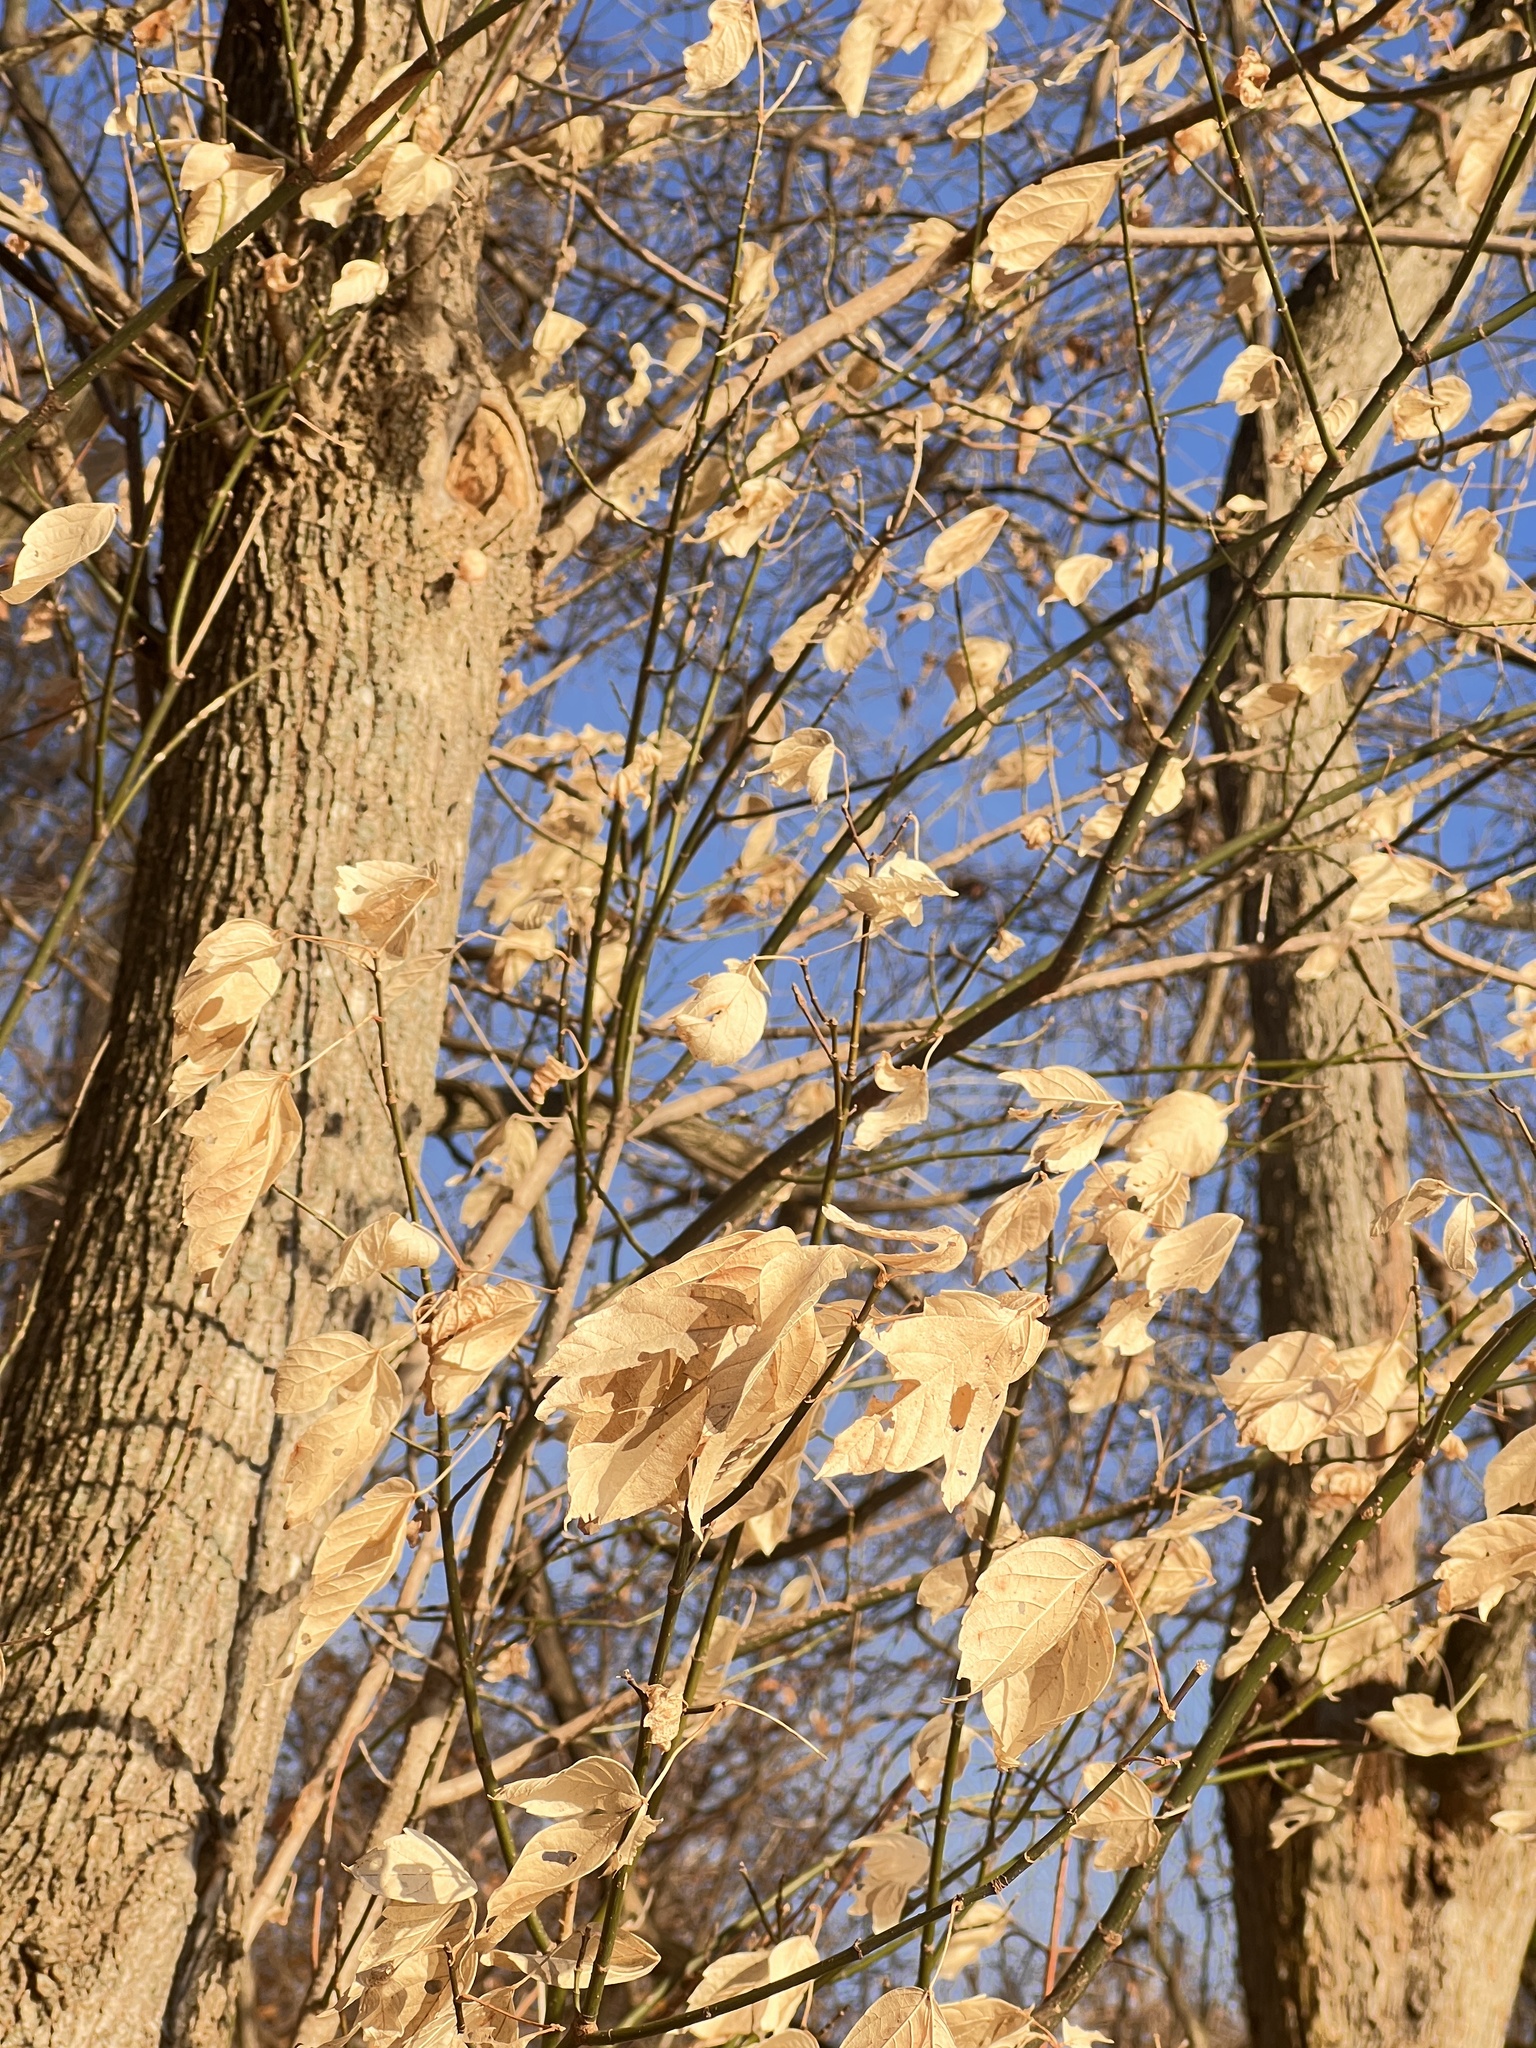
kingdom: Plantae
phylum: Tracheophyta
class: Magnoliopsida
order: Sapindales
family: Sapindaceae
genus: Acer
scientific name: Acer negundo
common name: Ashleaf maple
